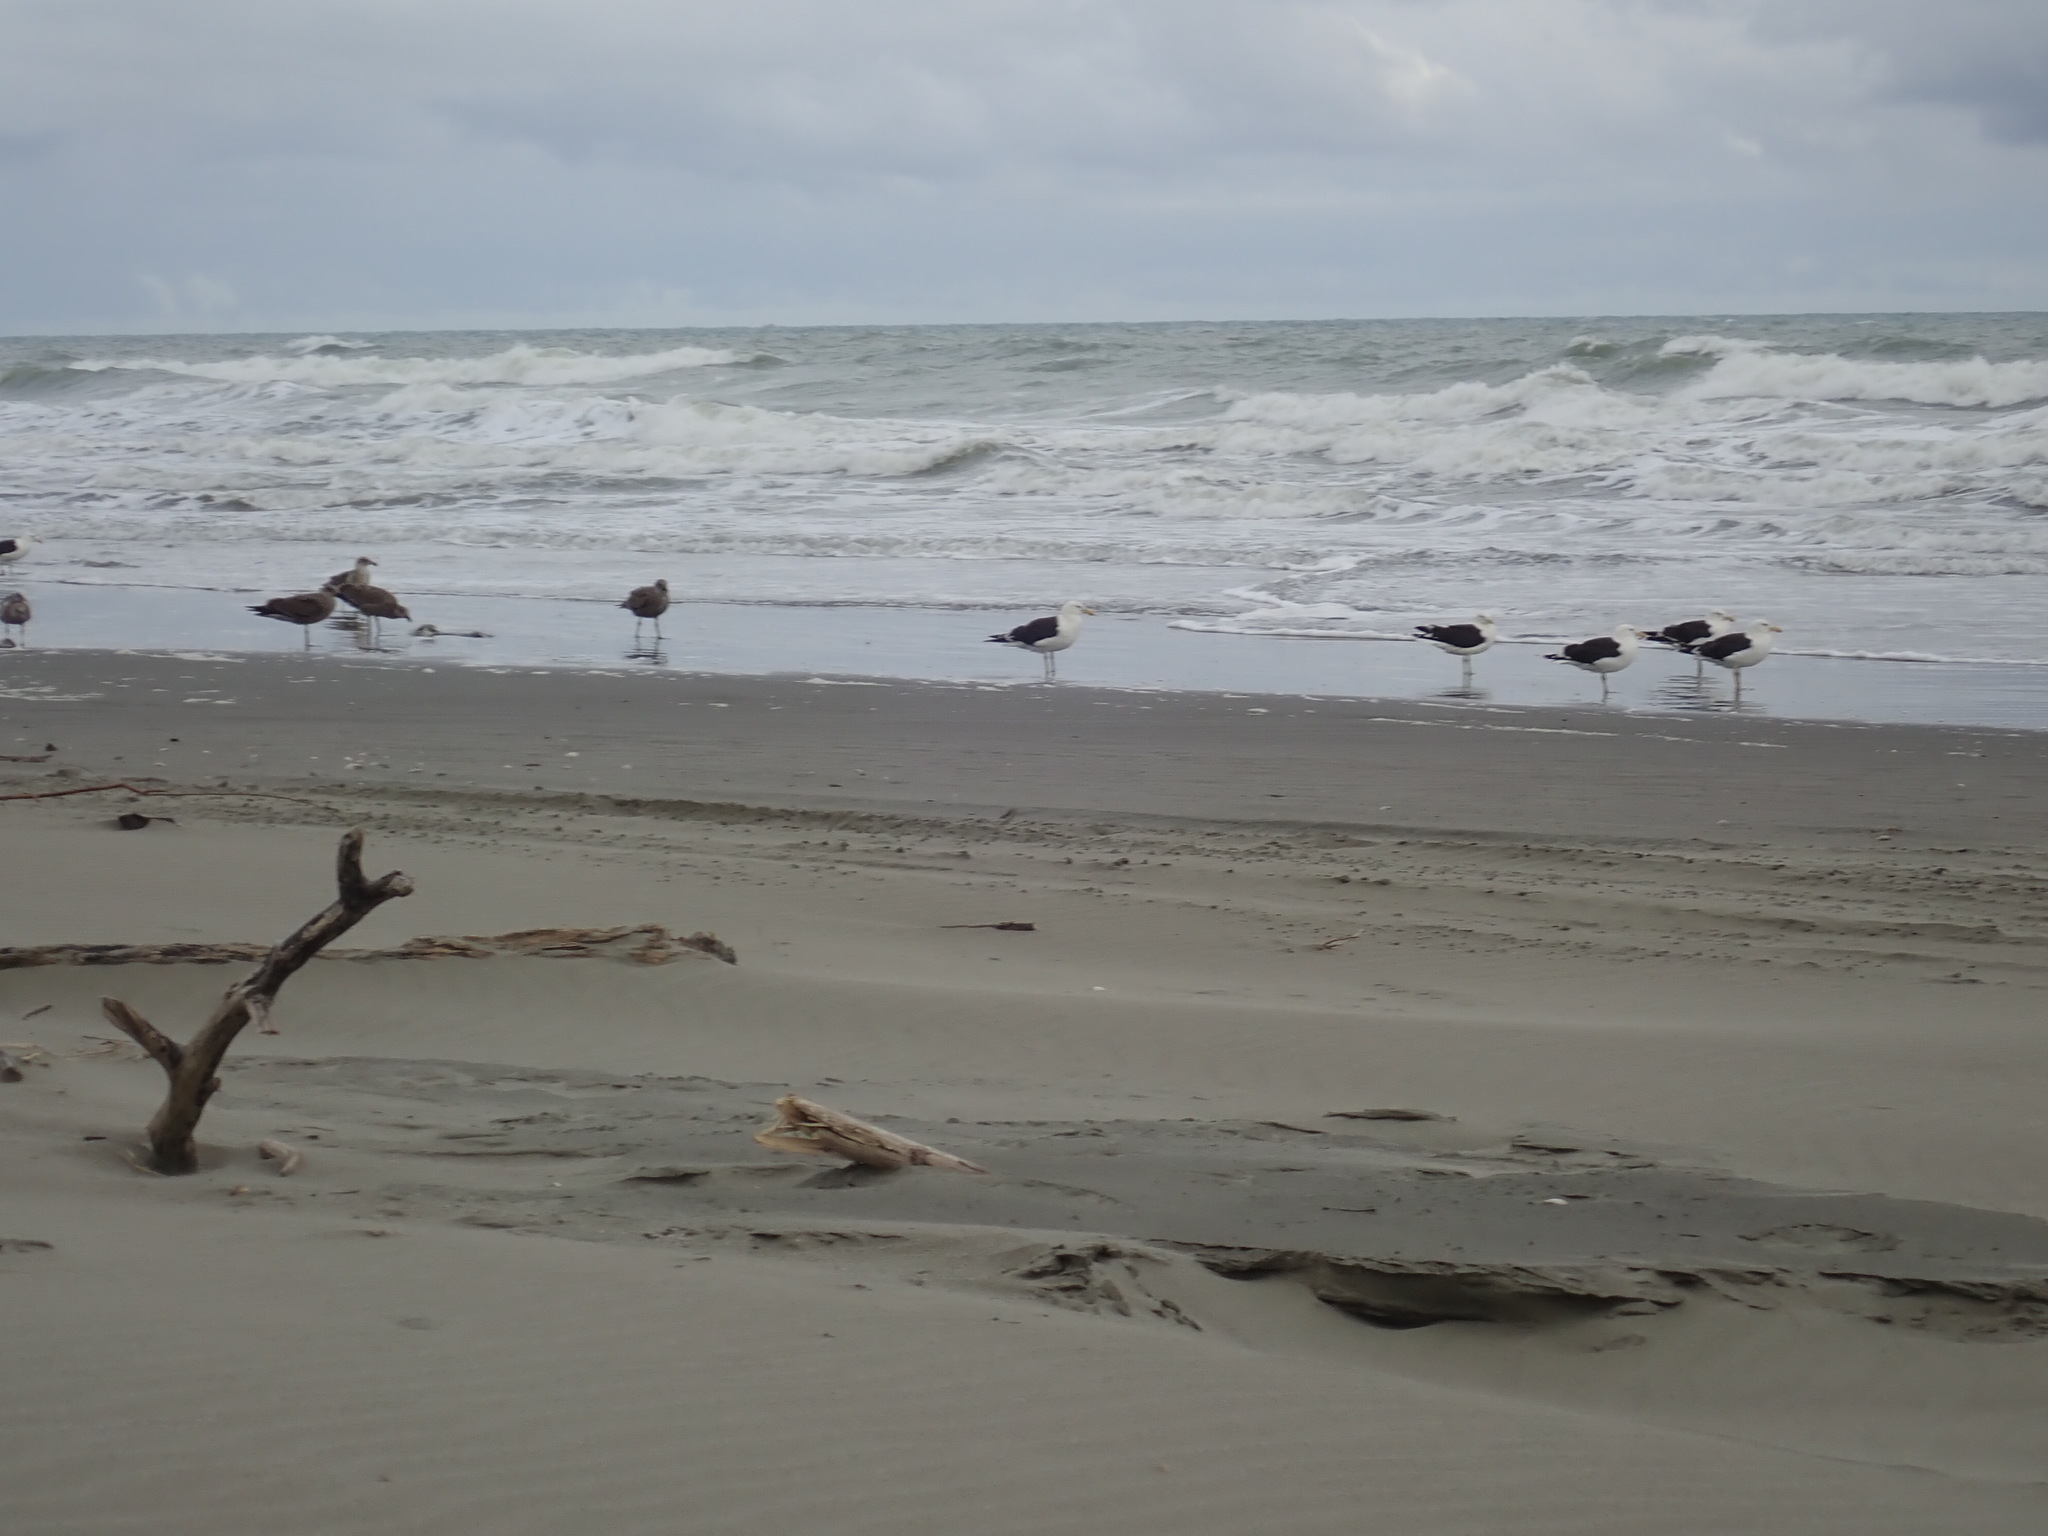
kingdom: Animalia
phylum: Chordata
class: Aves
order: Charadriiformes
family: Laridae
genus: Larus
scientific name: Larus dominicanus
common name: Kelp gull
